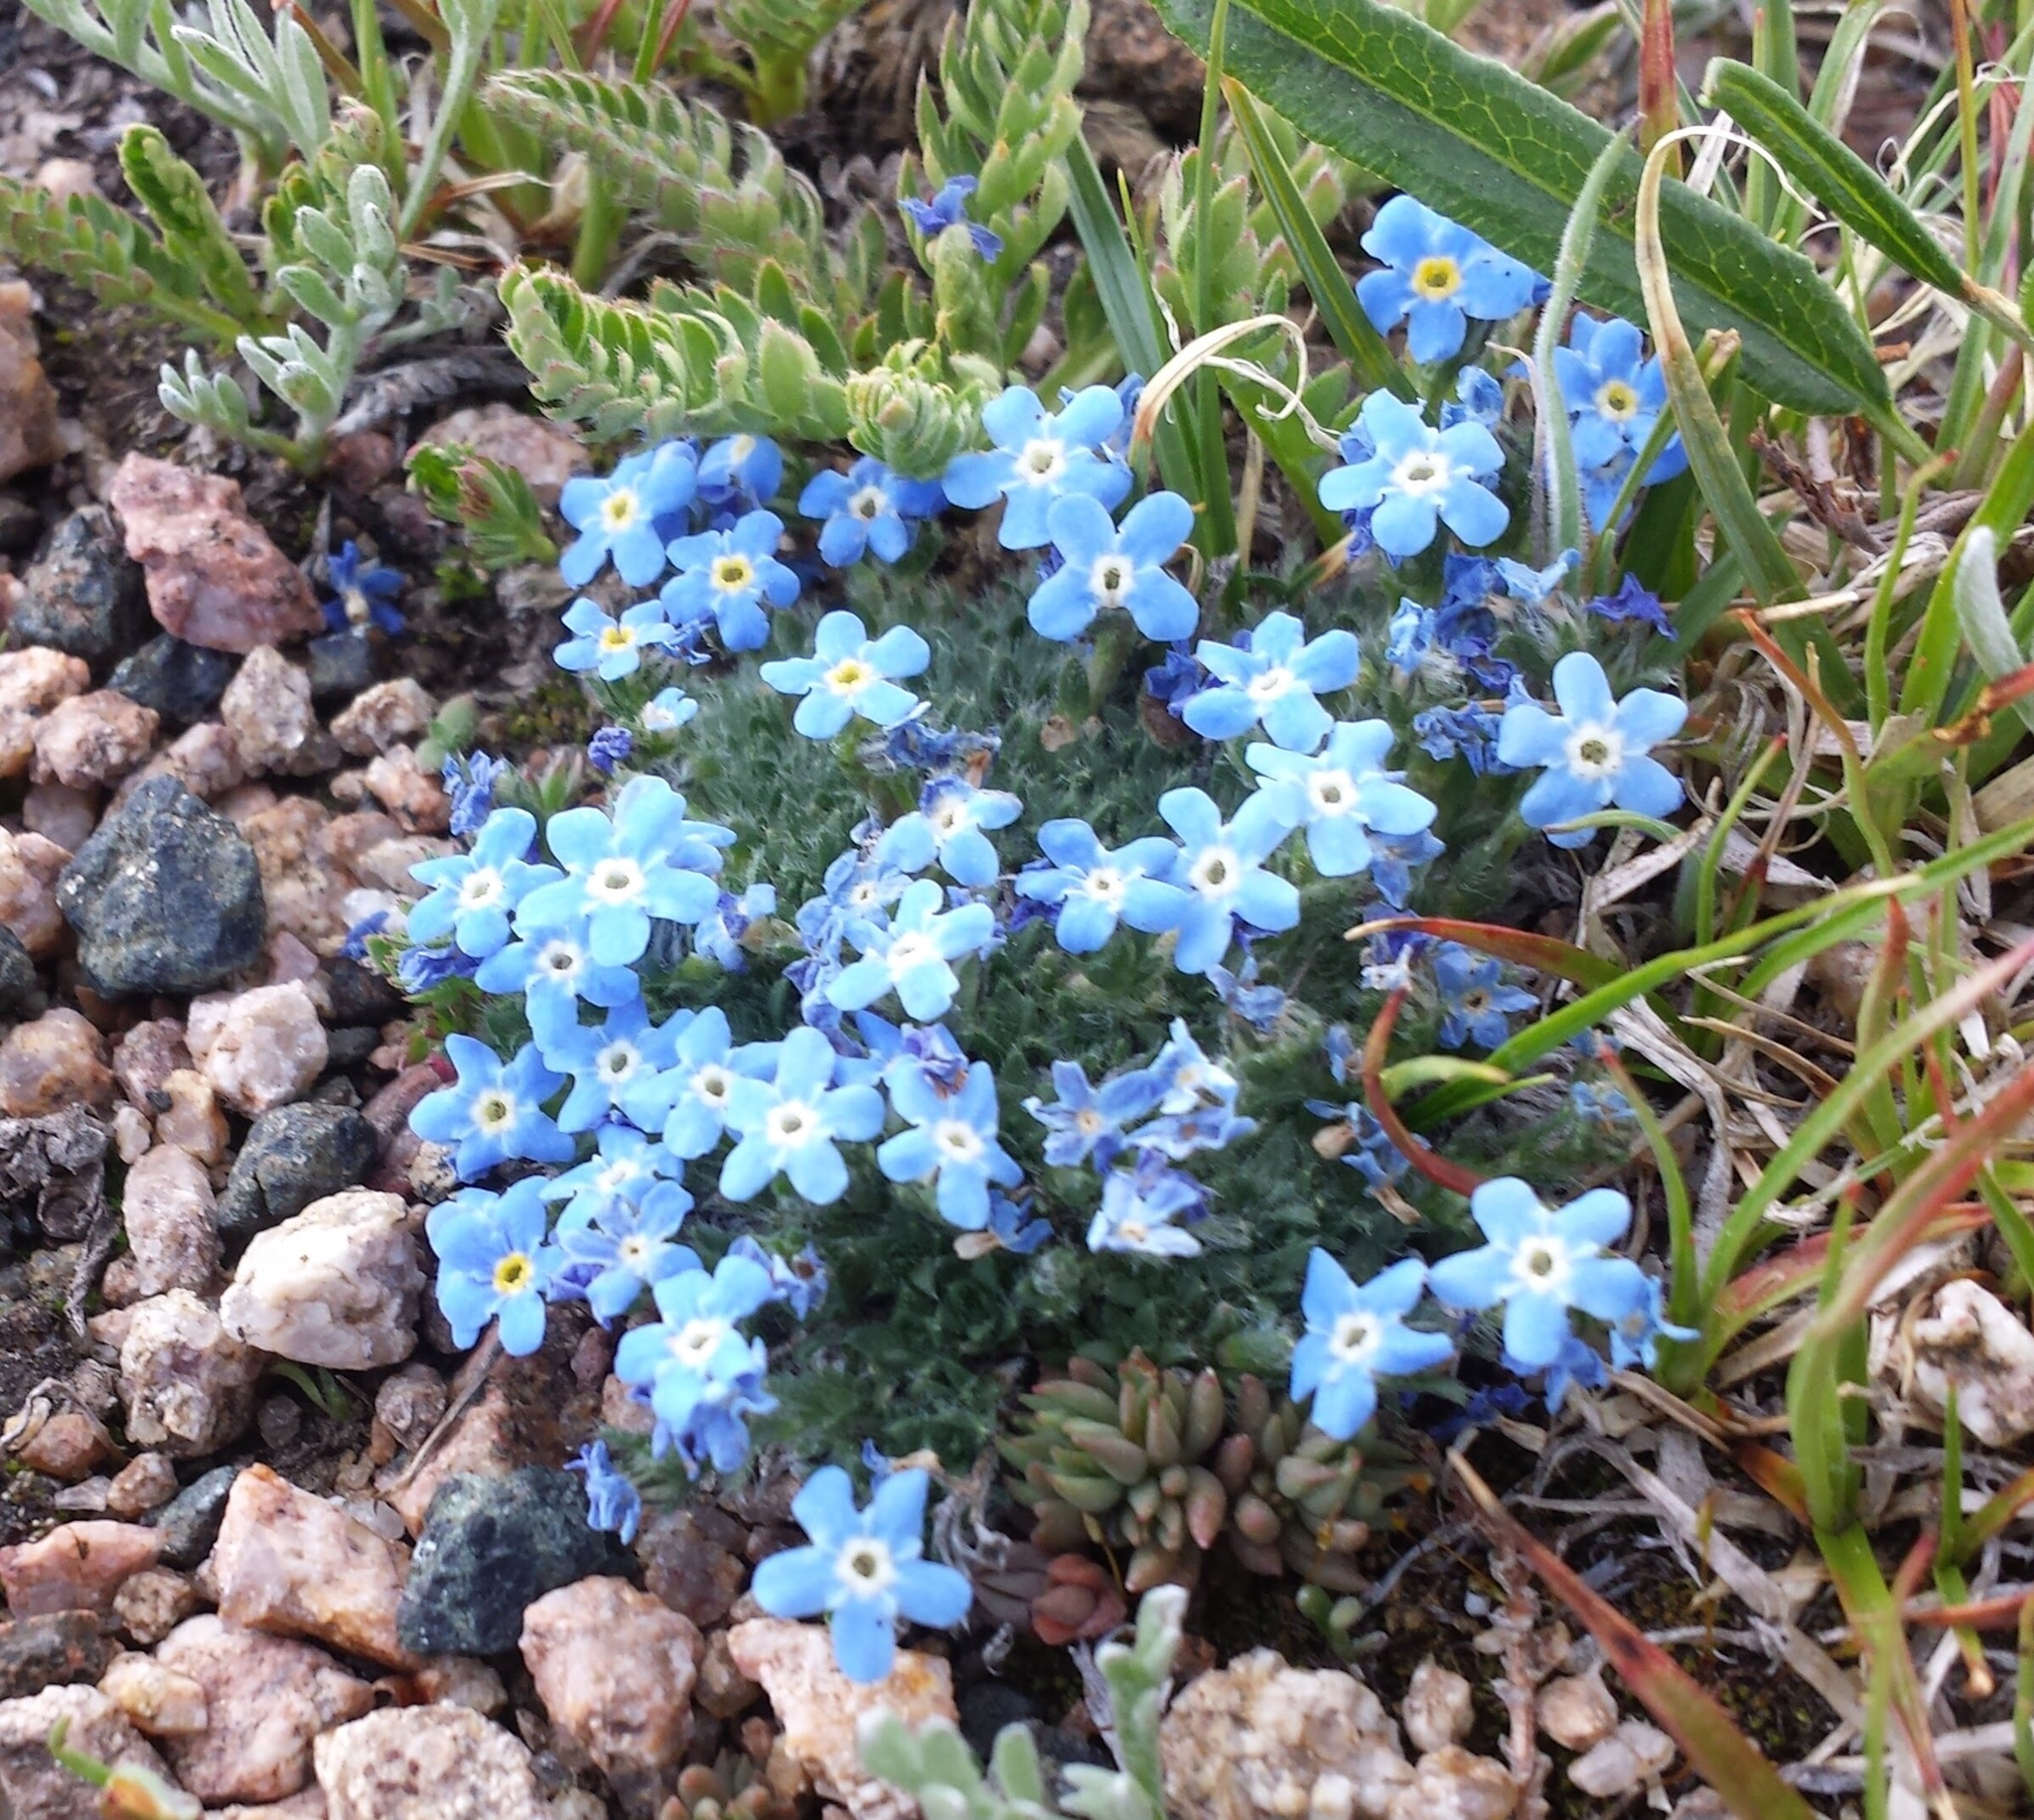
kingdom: Plantae
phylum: Tracheophyta
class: Magnoliopsida
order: Boraginales
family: Boraginaceae
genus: Eritrichium
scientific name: Eritrichium argenteum
